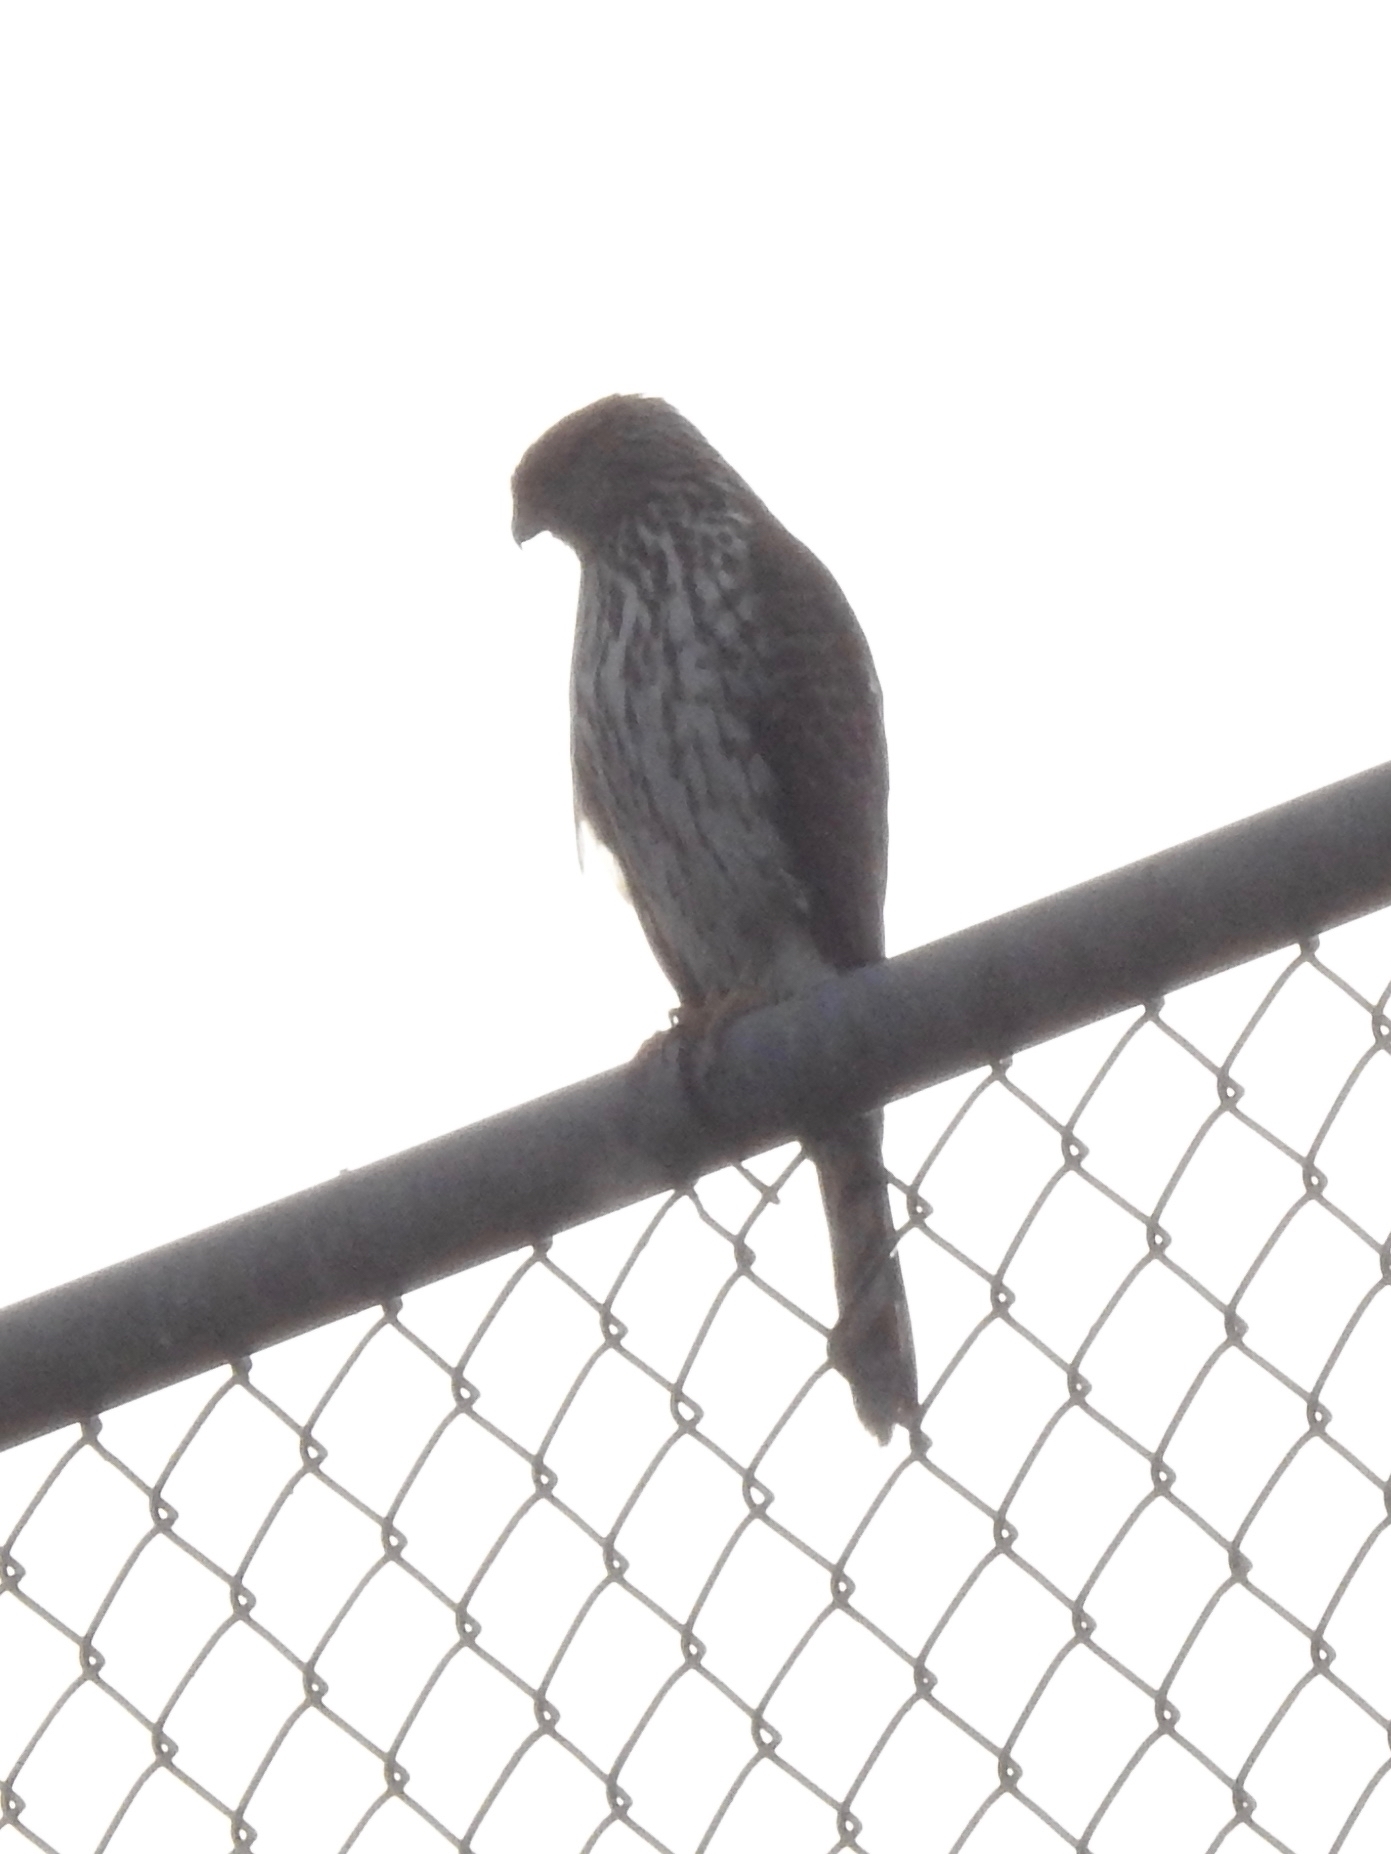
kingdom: Animalia
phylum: Chordata
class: Aves
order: Accipitriformes
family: Accipitridae
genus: Accipiter
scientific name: Accipiter cooperii
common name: Cooper's hawk
